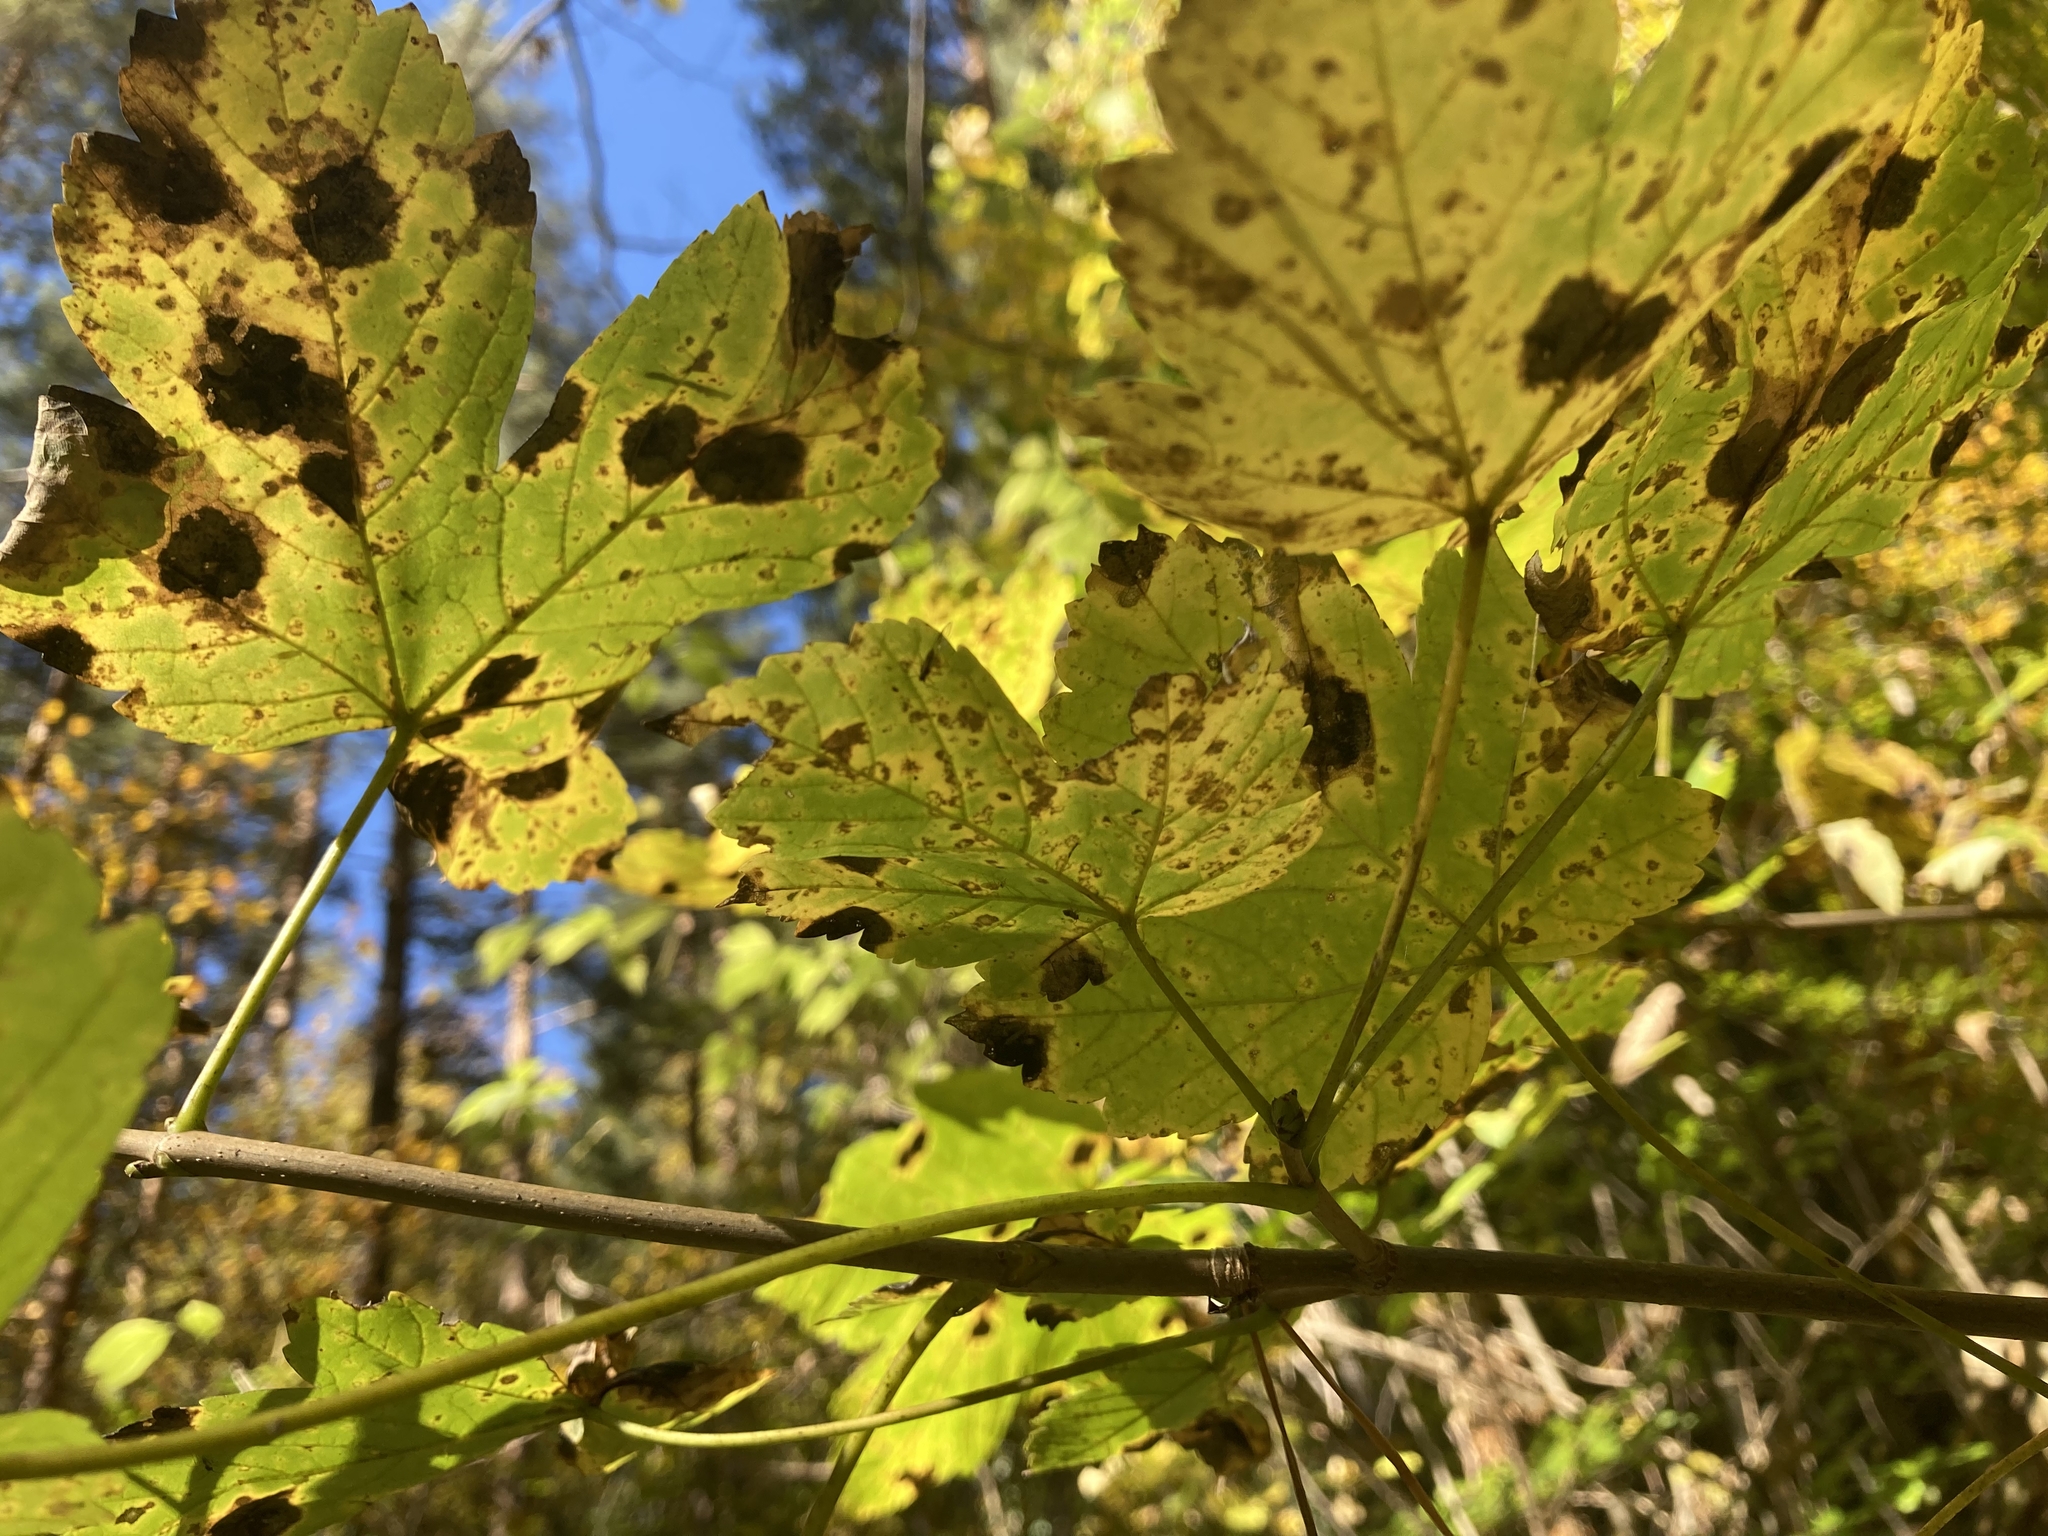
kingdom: Fungi
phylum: Ascomycota
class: Leotiomycetes
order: Rhytismatales
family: Rhytismataceae
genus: Rhytisma
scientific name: Rhytisma acerinum
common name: European tar spot
